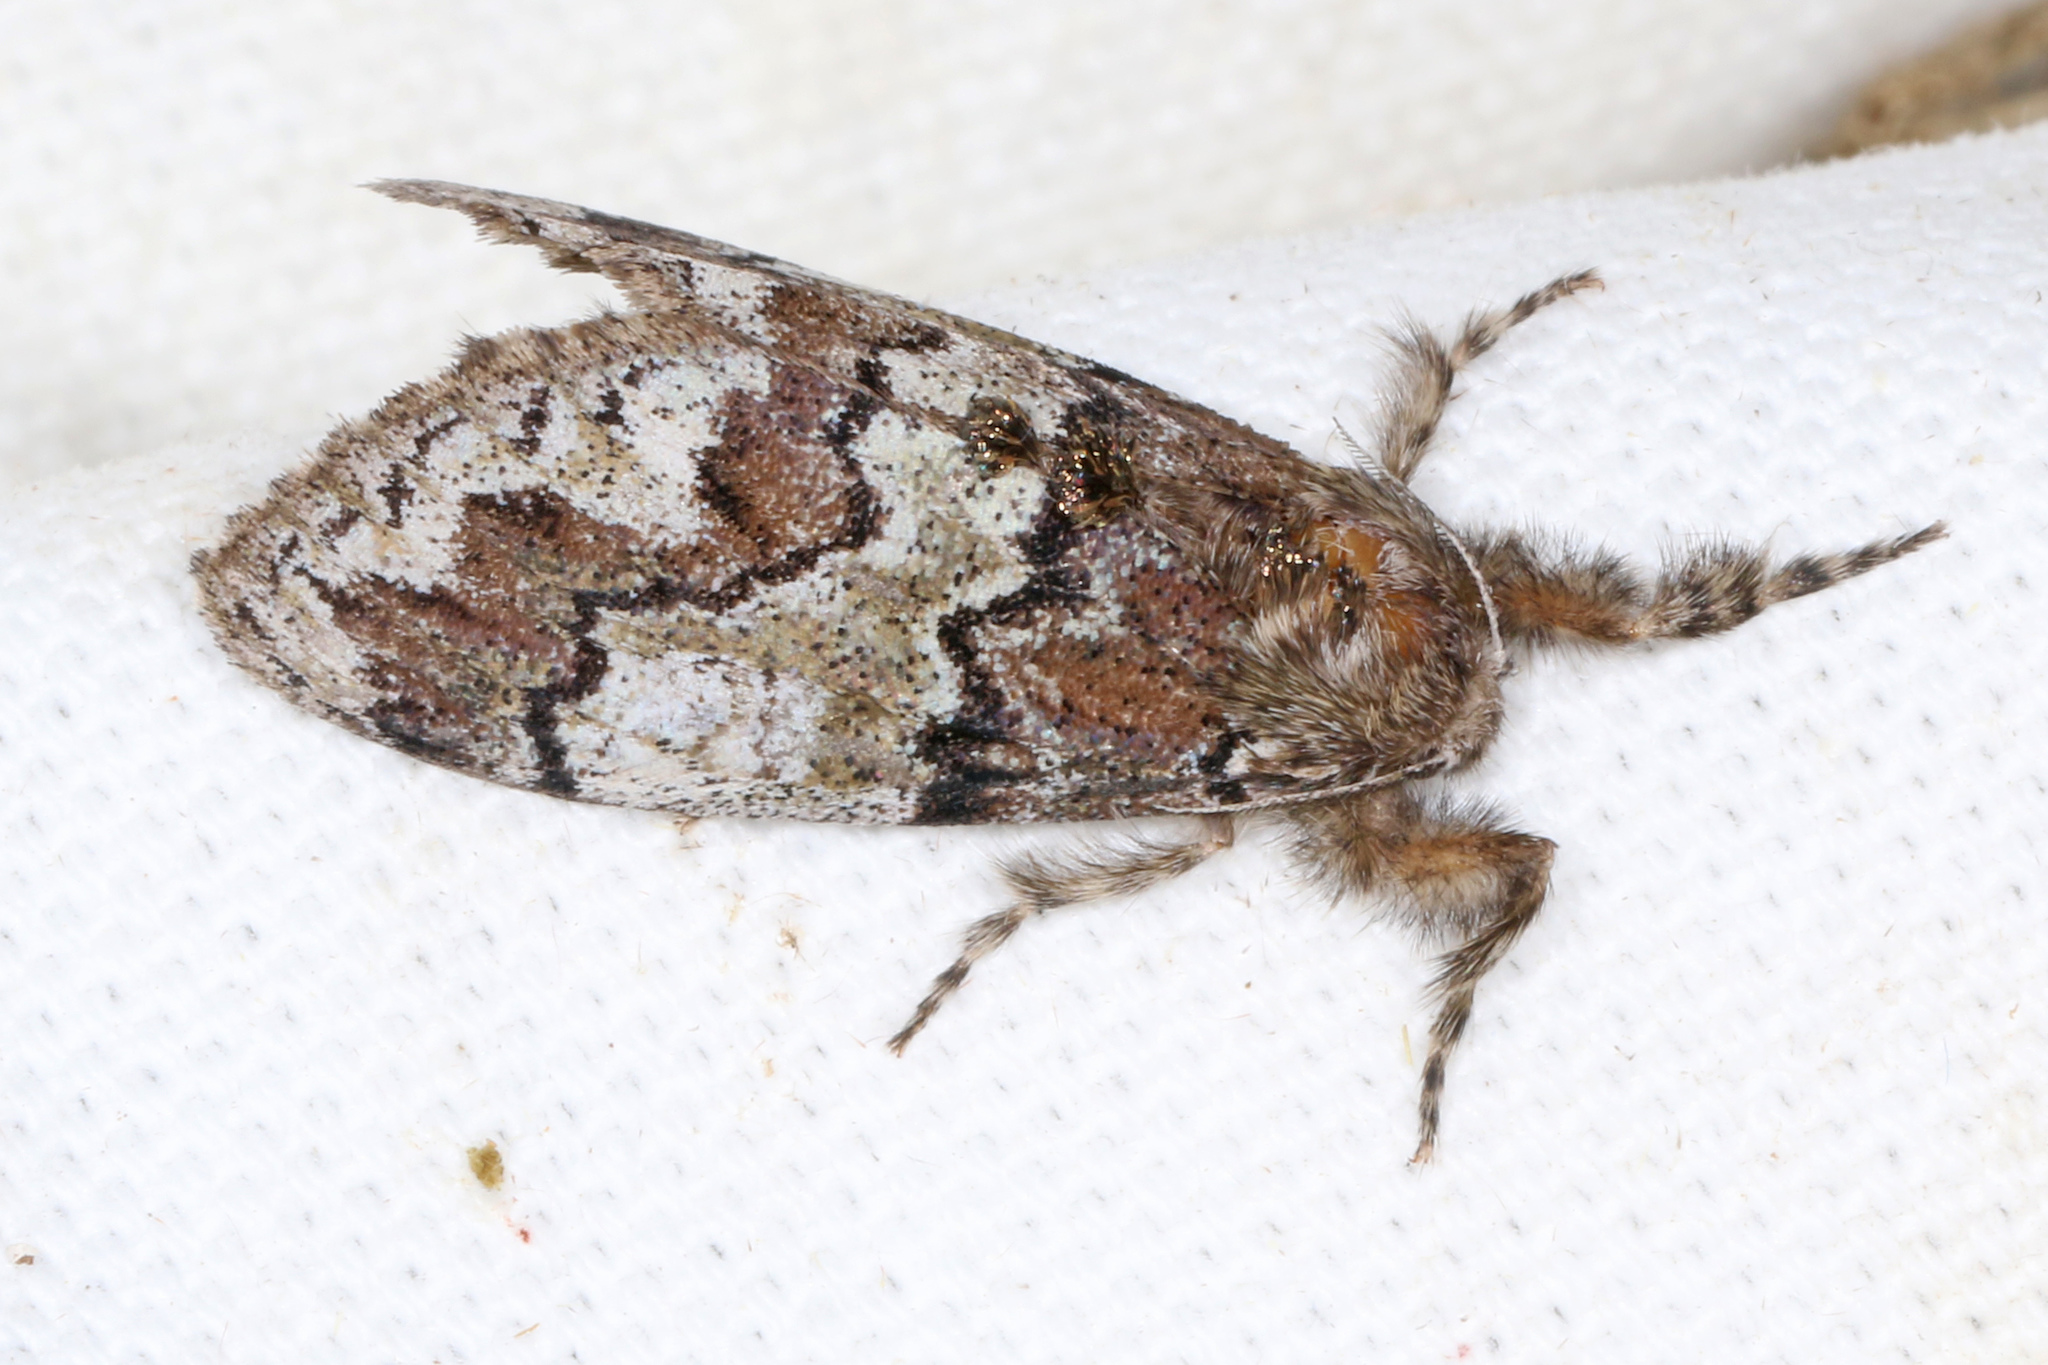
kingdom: Animalia
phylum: Arthropoda
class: Insecta
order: Lepidoptera
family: Erebidae
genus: Dasychira
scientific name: Dasychira manto
